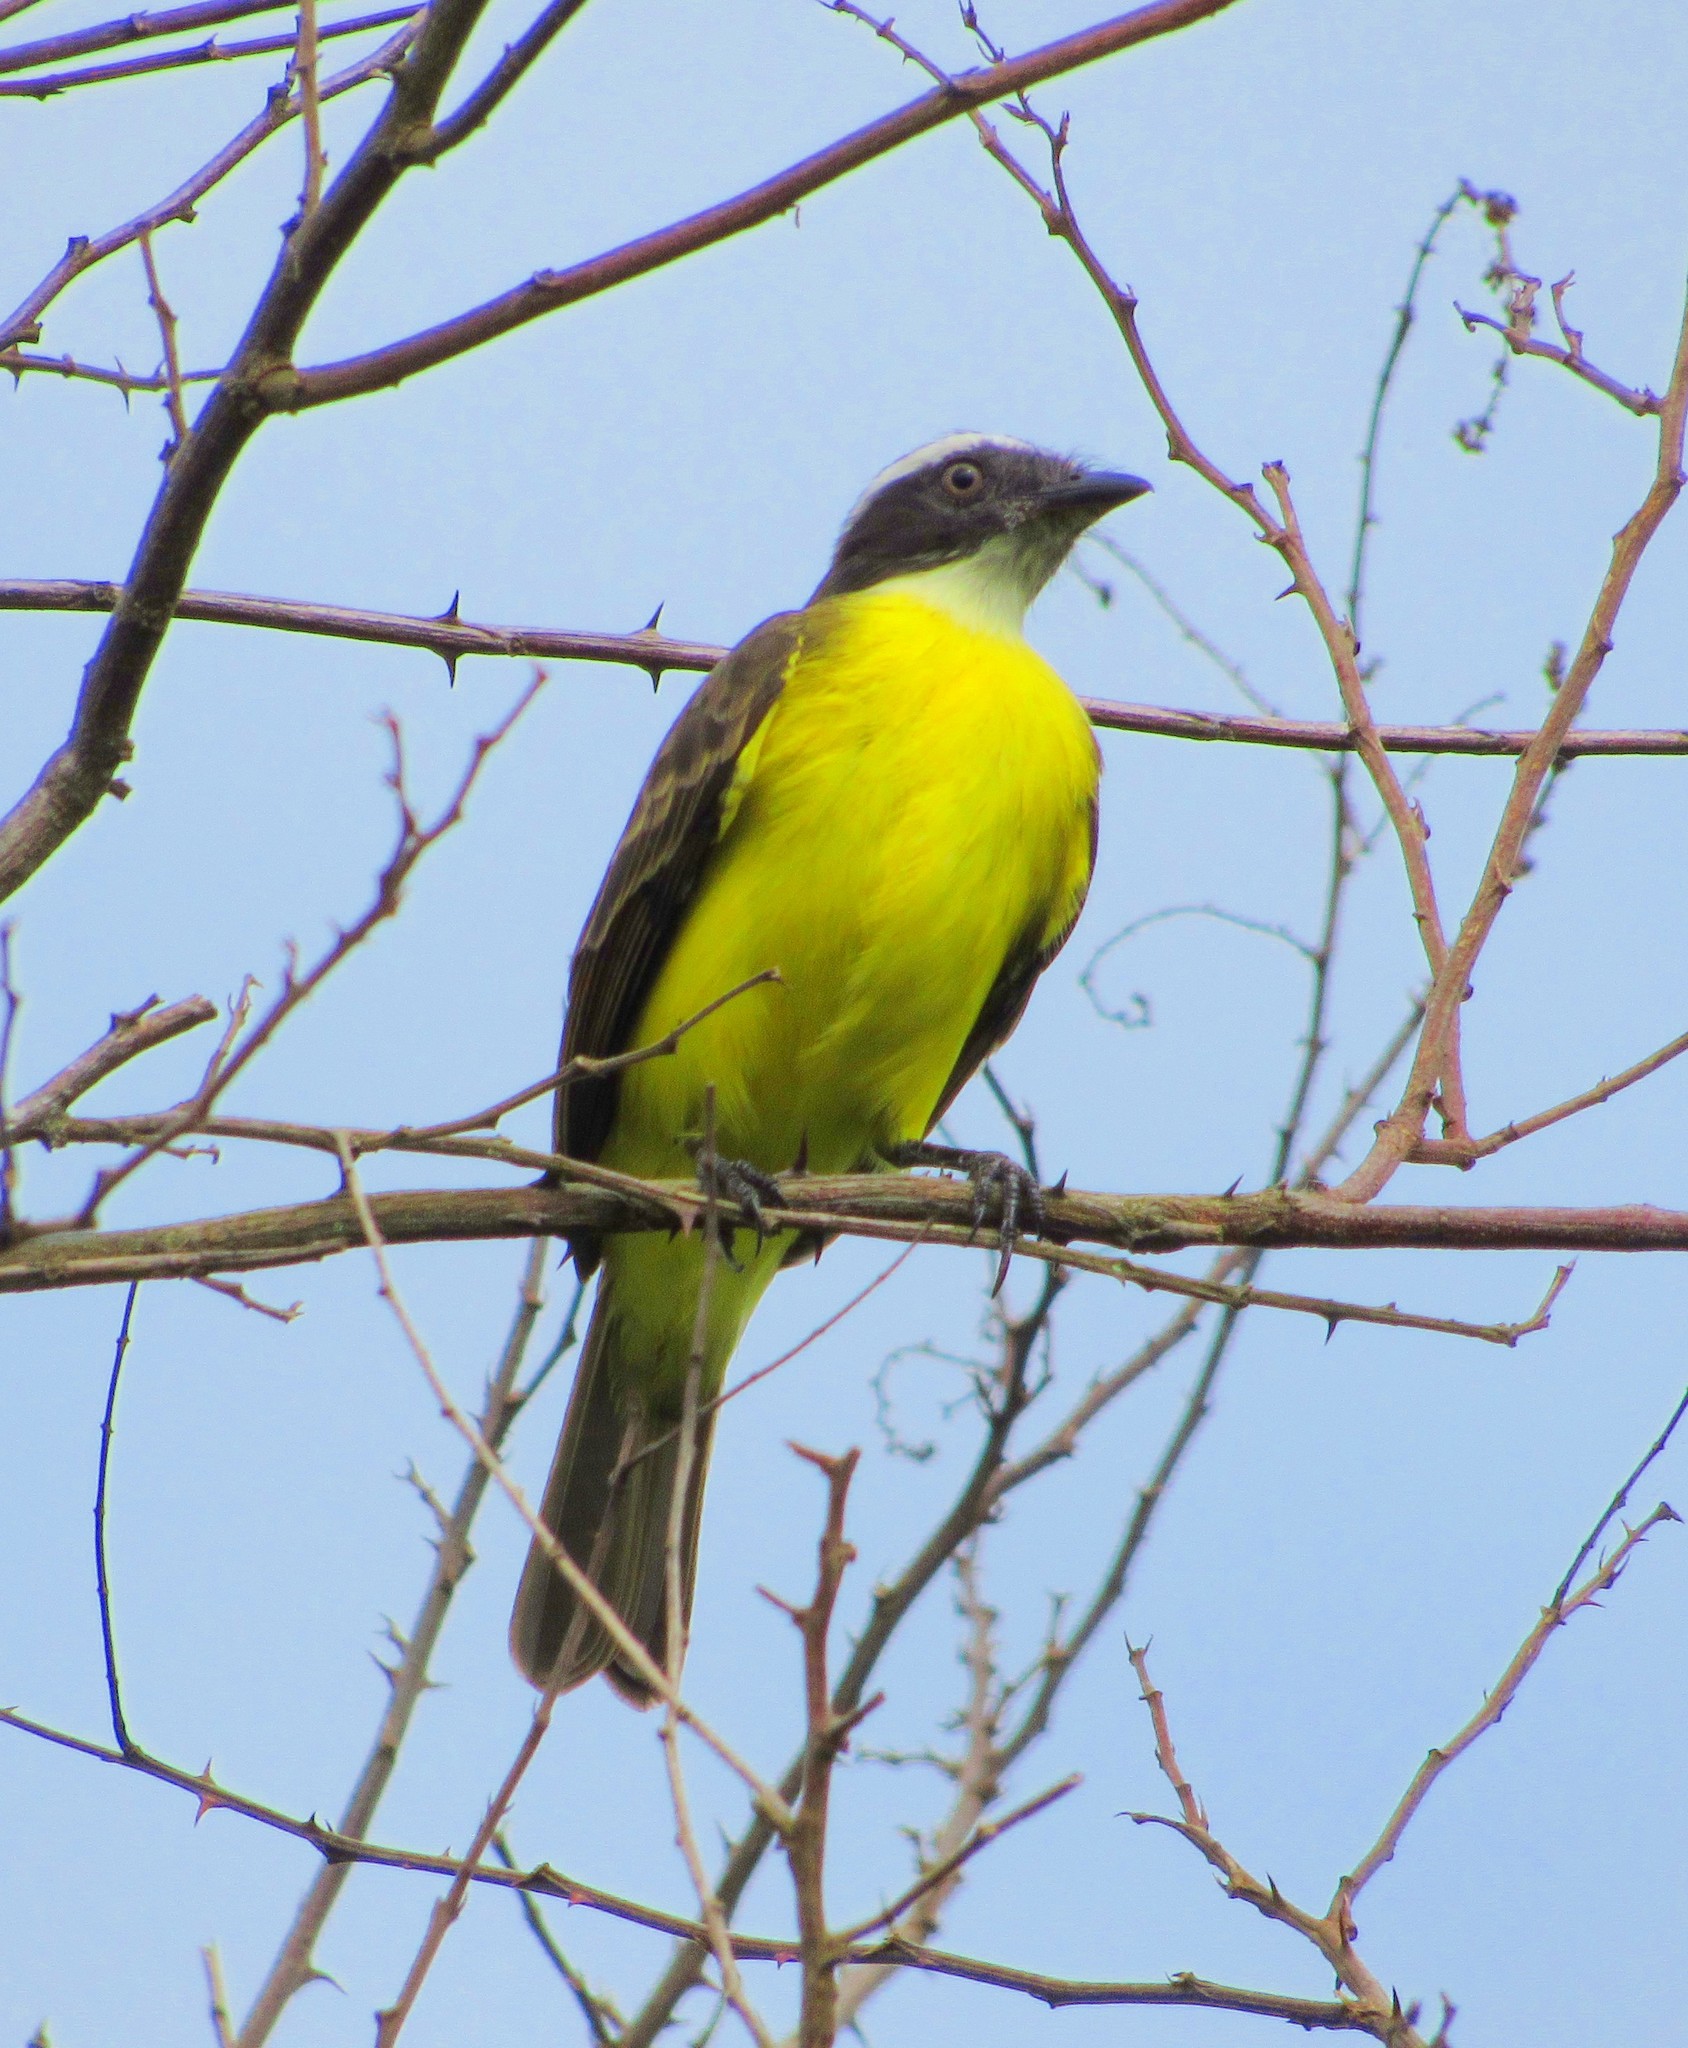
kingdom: Animalia
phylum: Chordata
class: Aves
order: Passeriformes
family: Tyrannidae
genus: Myiozetetes
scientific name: Myiozetetes similis
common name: Social flycatcher
